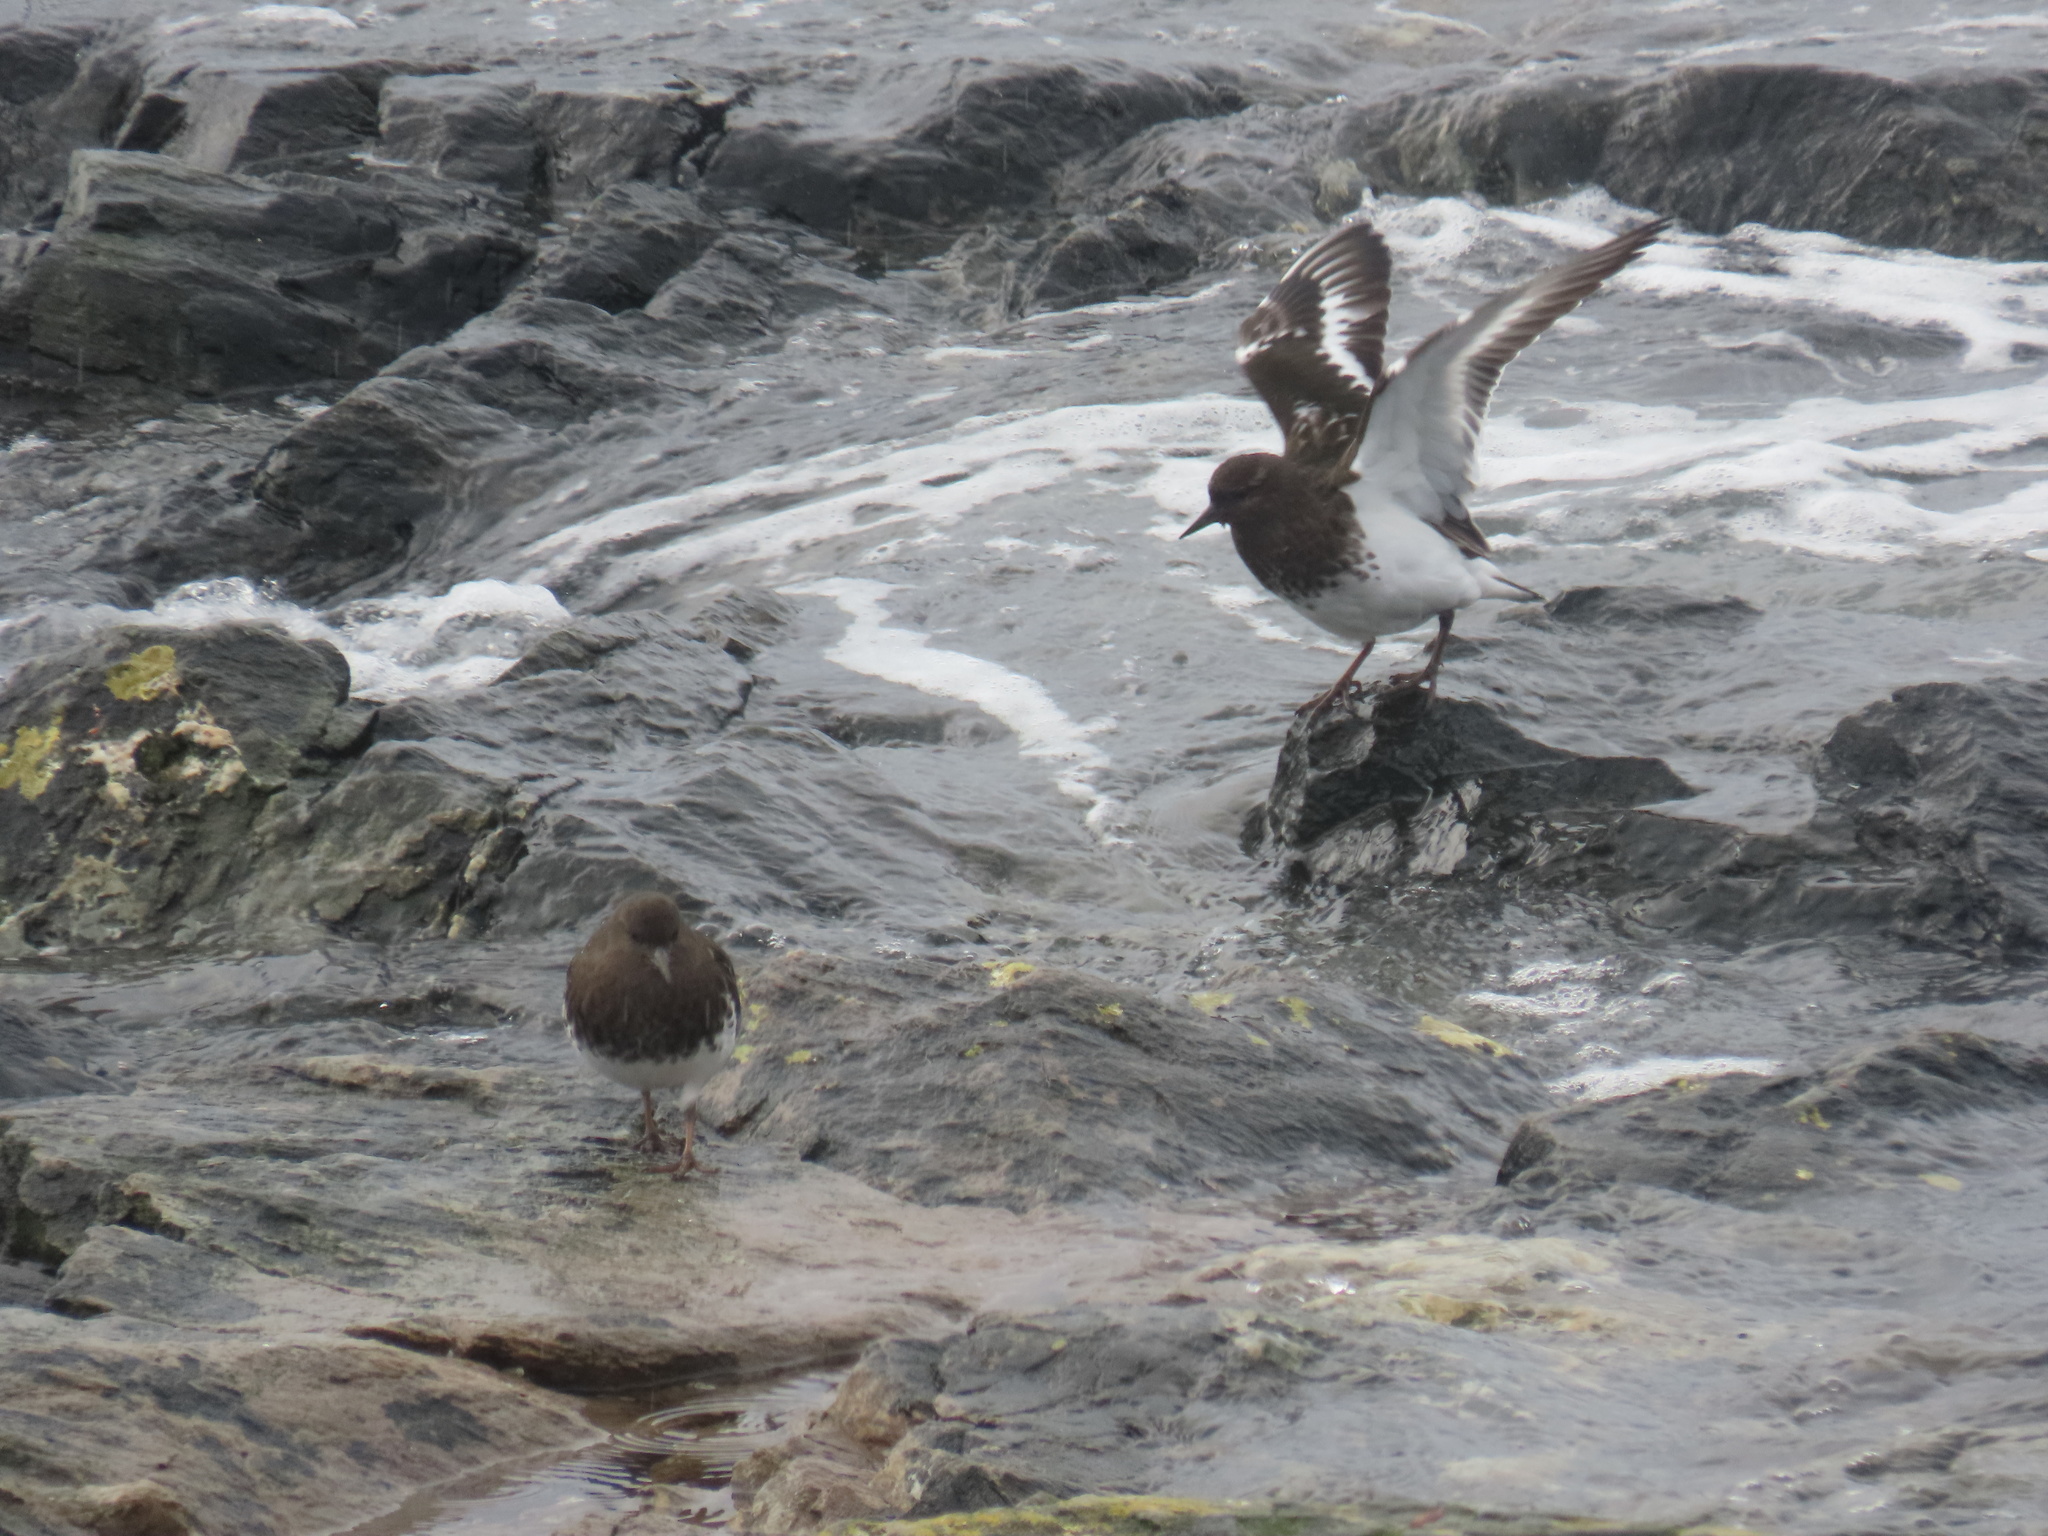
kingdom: Animalia
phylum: Chordata
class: Aves
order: Charadriiformes
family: Scolopacidae
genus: Arenaria
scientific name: Arenaria melanocephala
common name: Black turnstone
